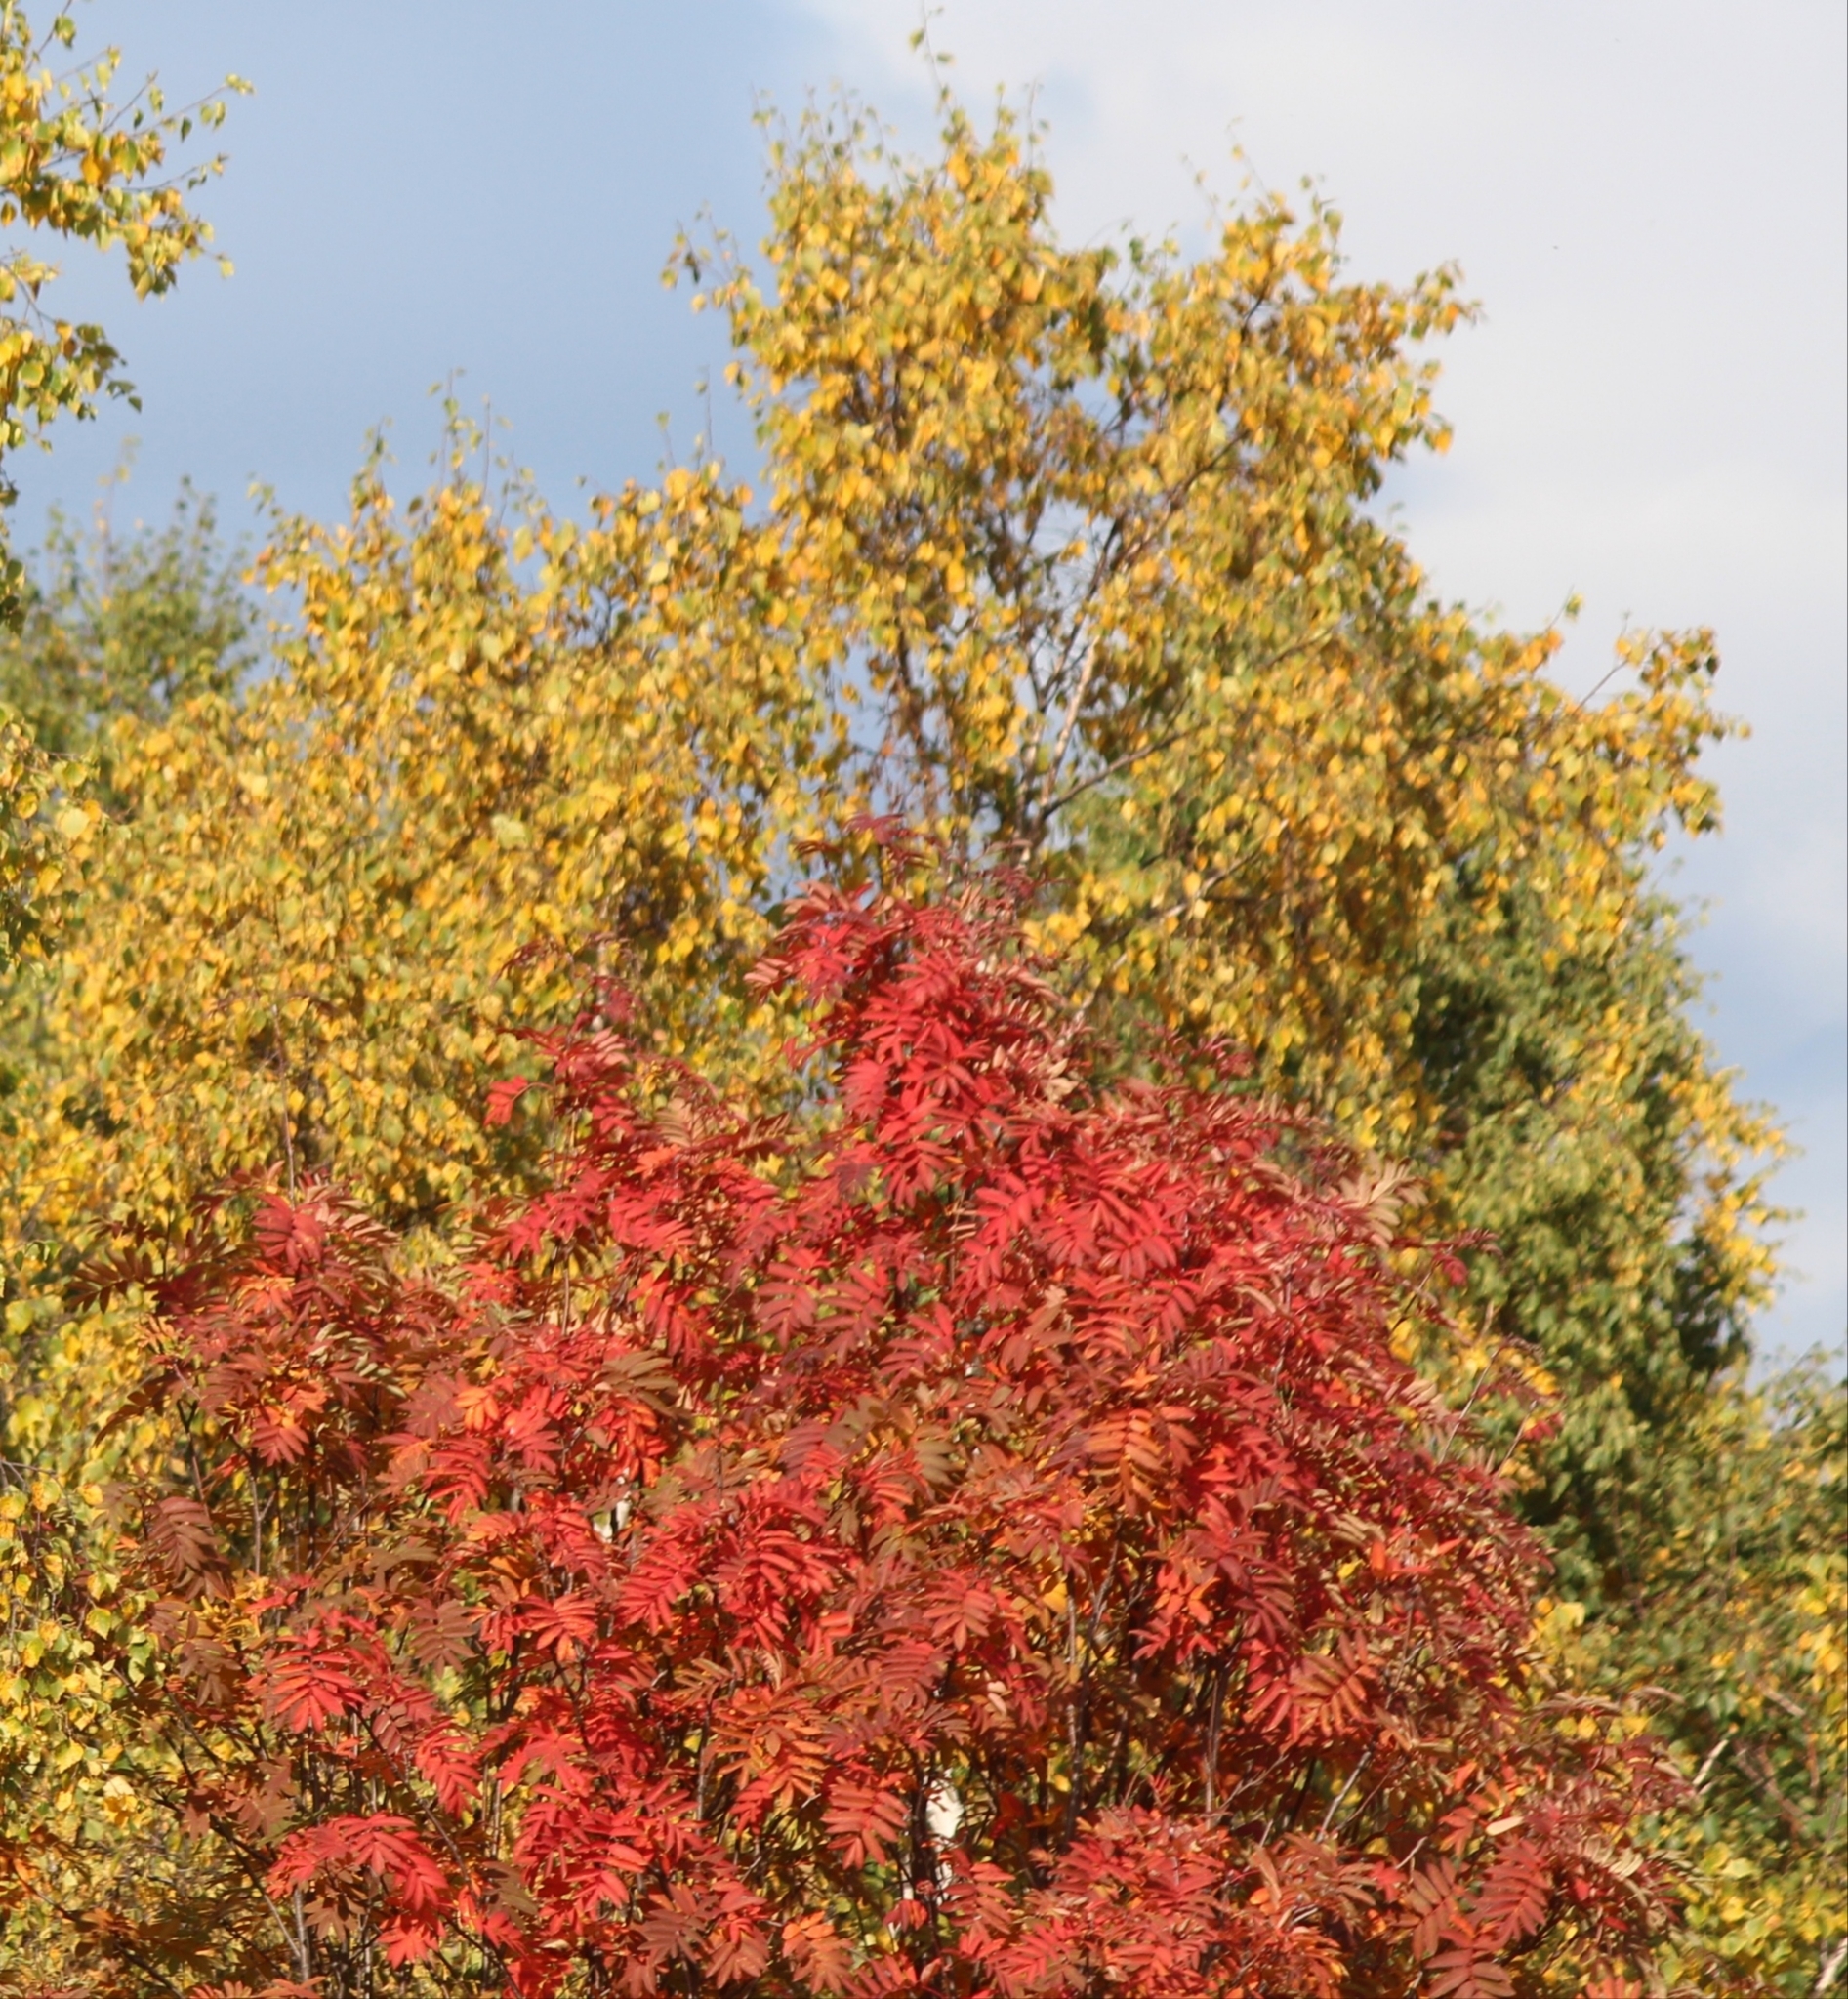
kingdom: Plantae
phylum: Tracheophyta
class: Magnoliopsida
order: Rosales
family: Rosaceae
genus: Sorbus
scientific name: Sorbus aucuparia
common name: Rowan
